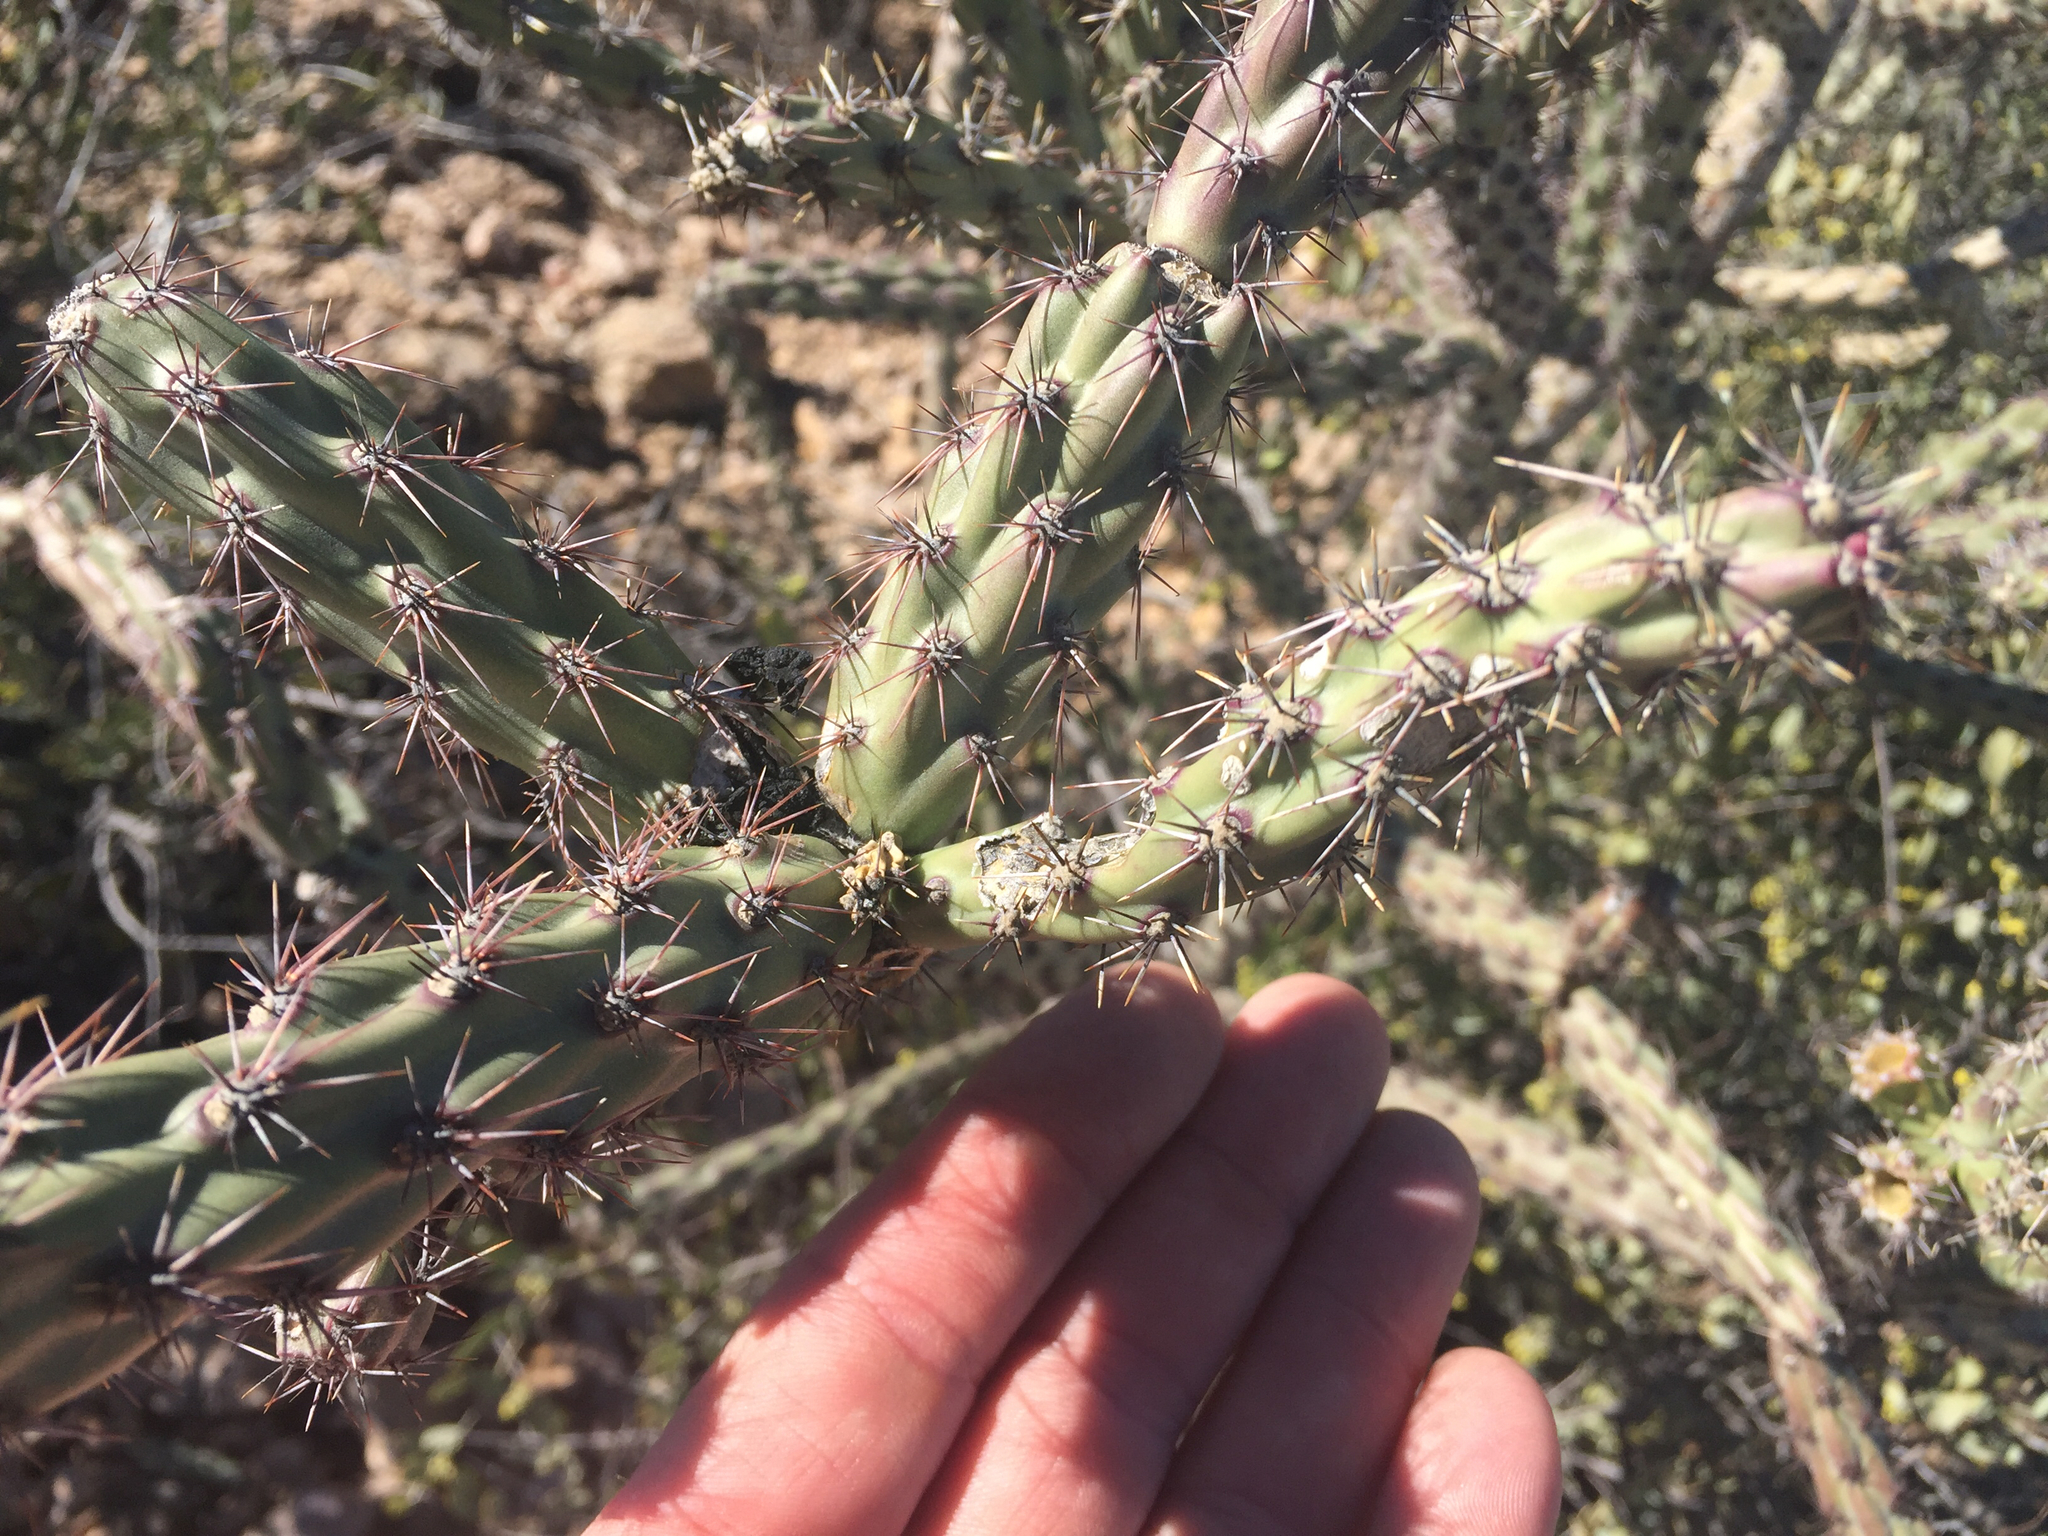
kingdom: Plantae
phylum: Tracheophyta
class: Magnoliopsida
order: Caryophyllales
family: Cactaceae
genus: Cylindropuntia
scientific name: Cylindropuntia acanthocarpa
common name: Buckhorn cholla
